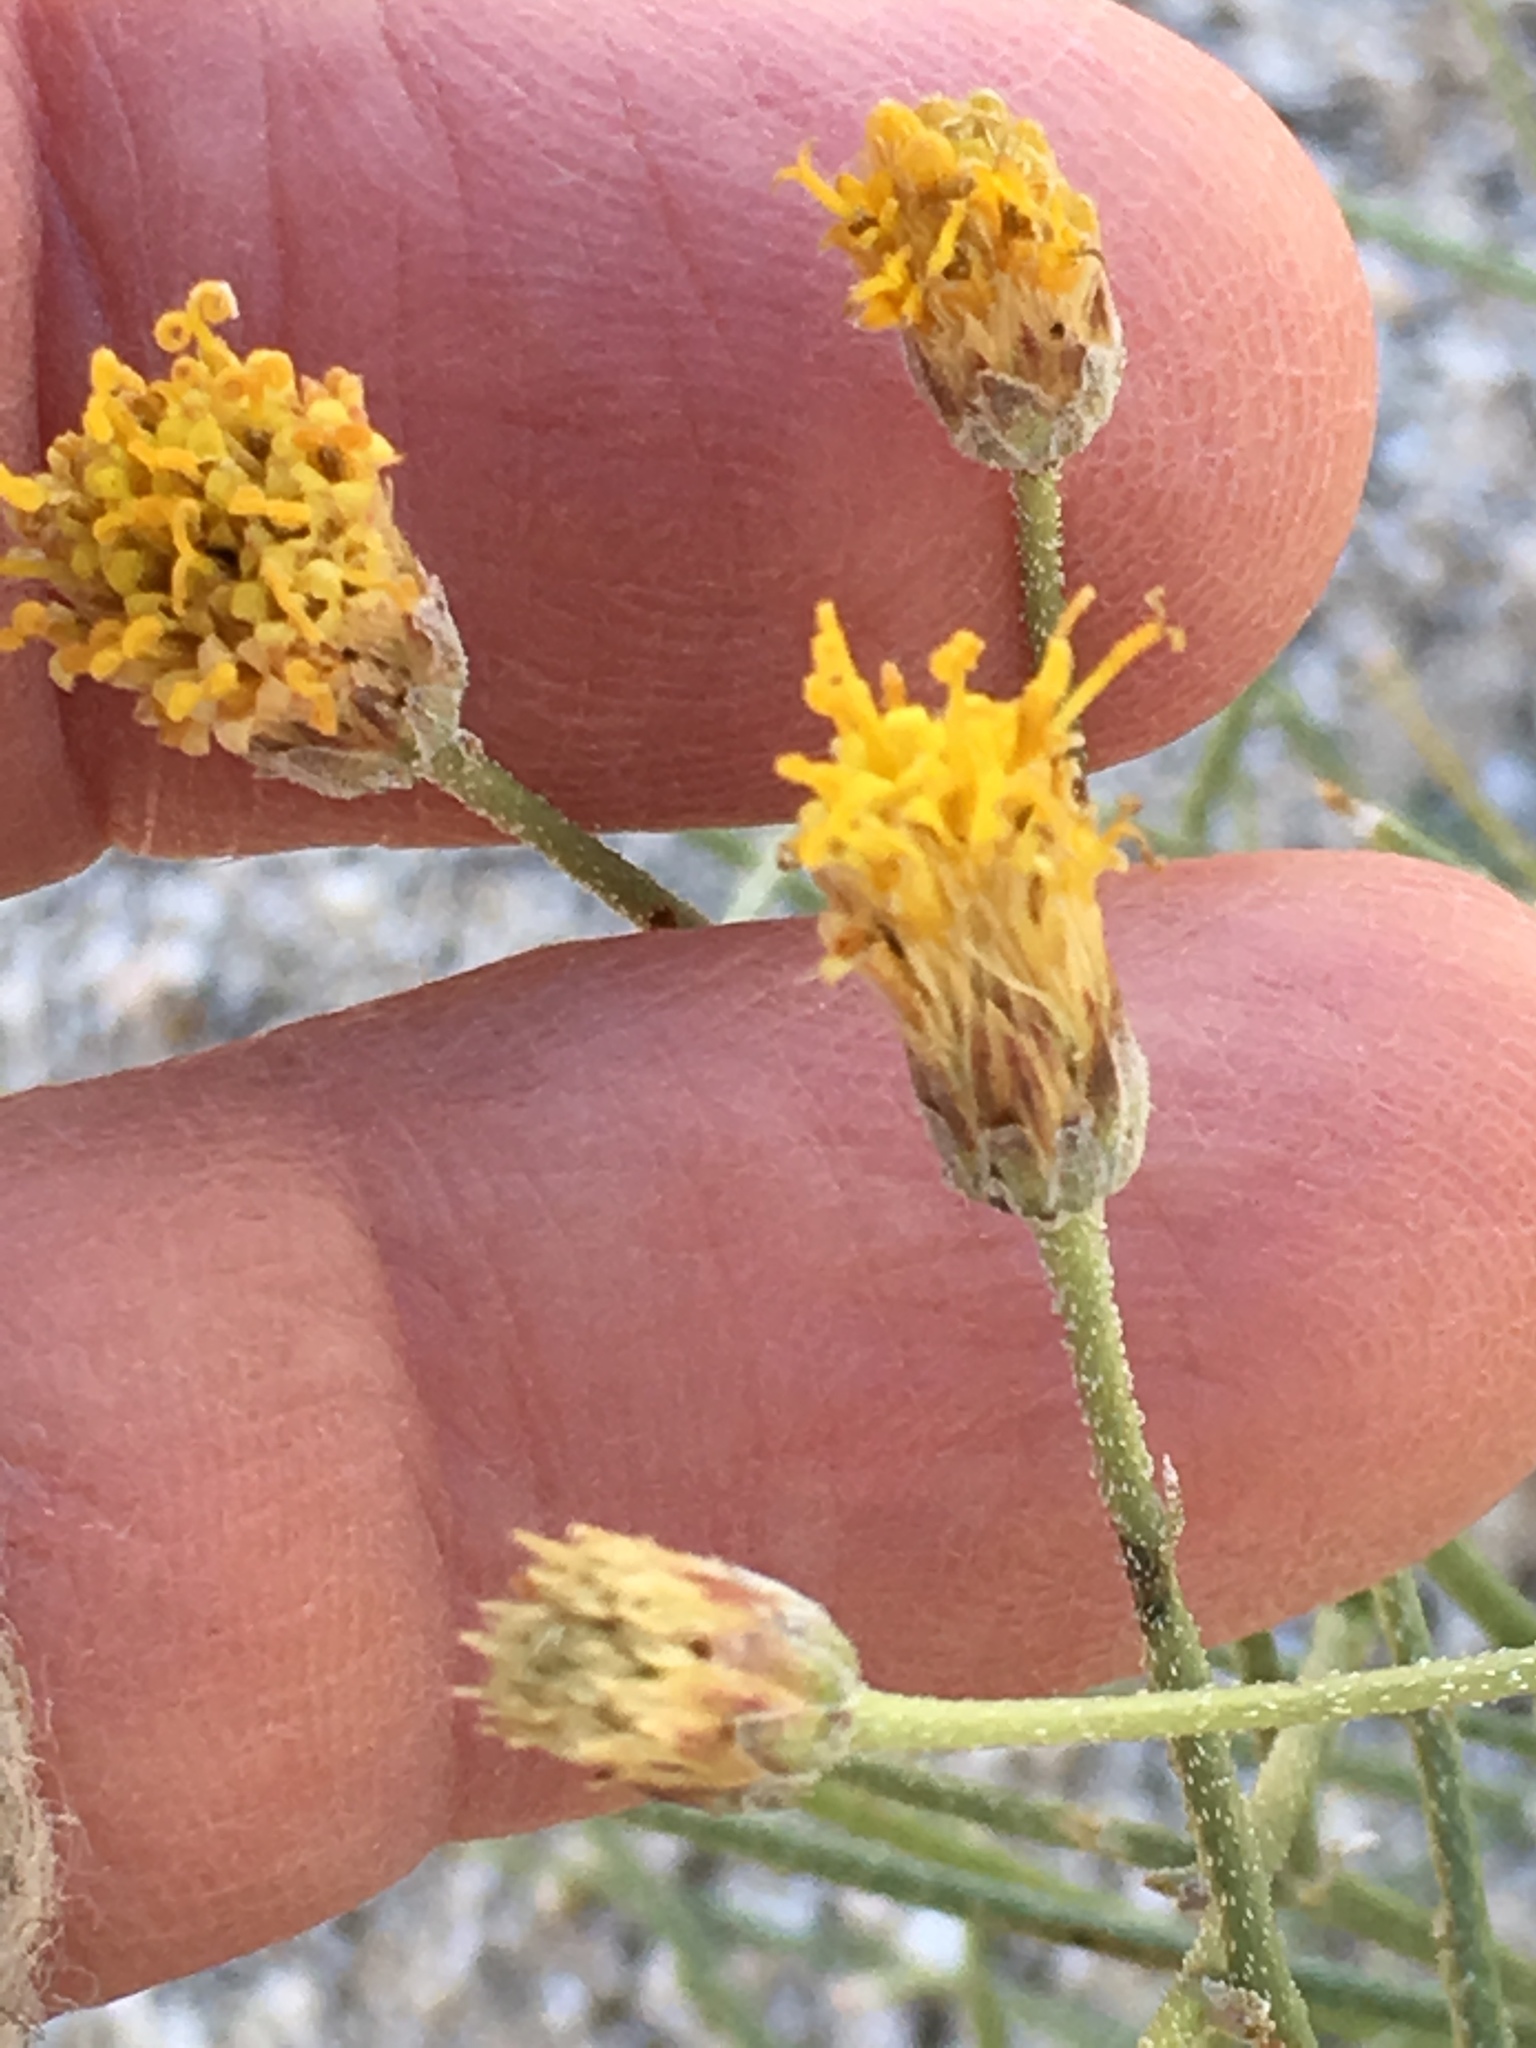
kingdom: Plantae
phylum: Tracheophyta
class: Magnoliopsida
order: Asterales
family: Asteraceae
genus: Bebbia
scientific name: Bebbia juncea
